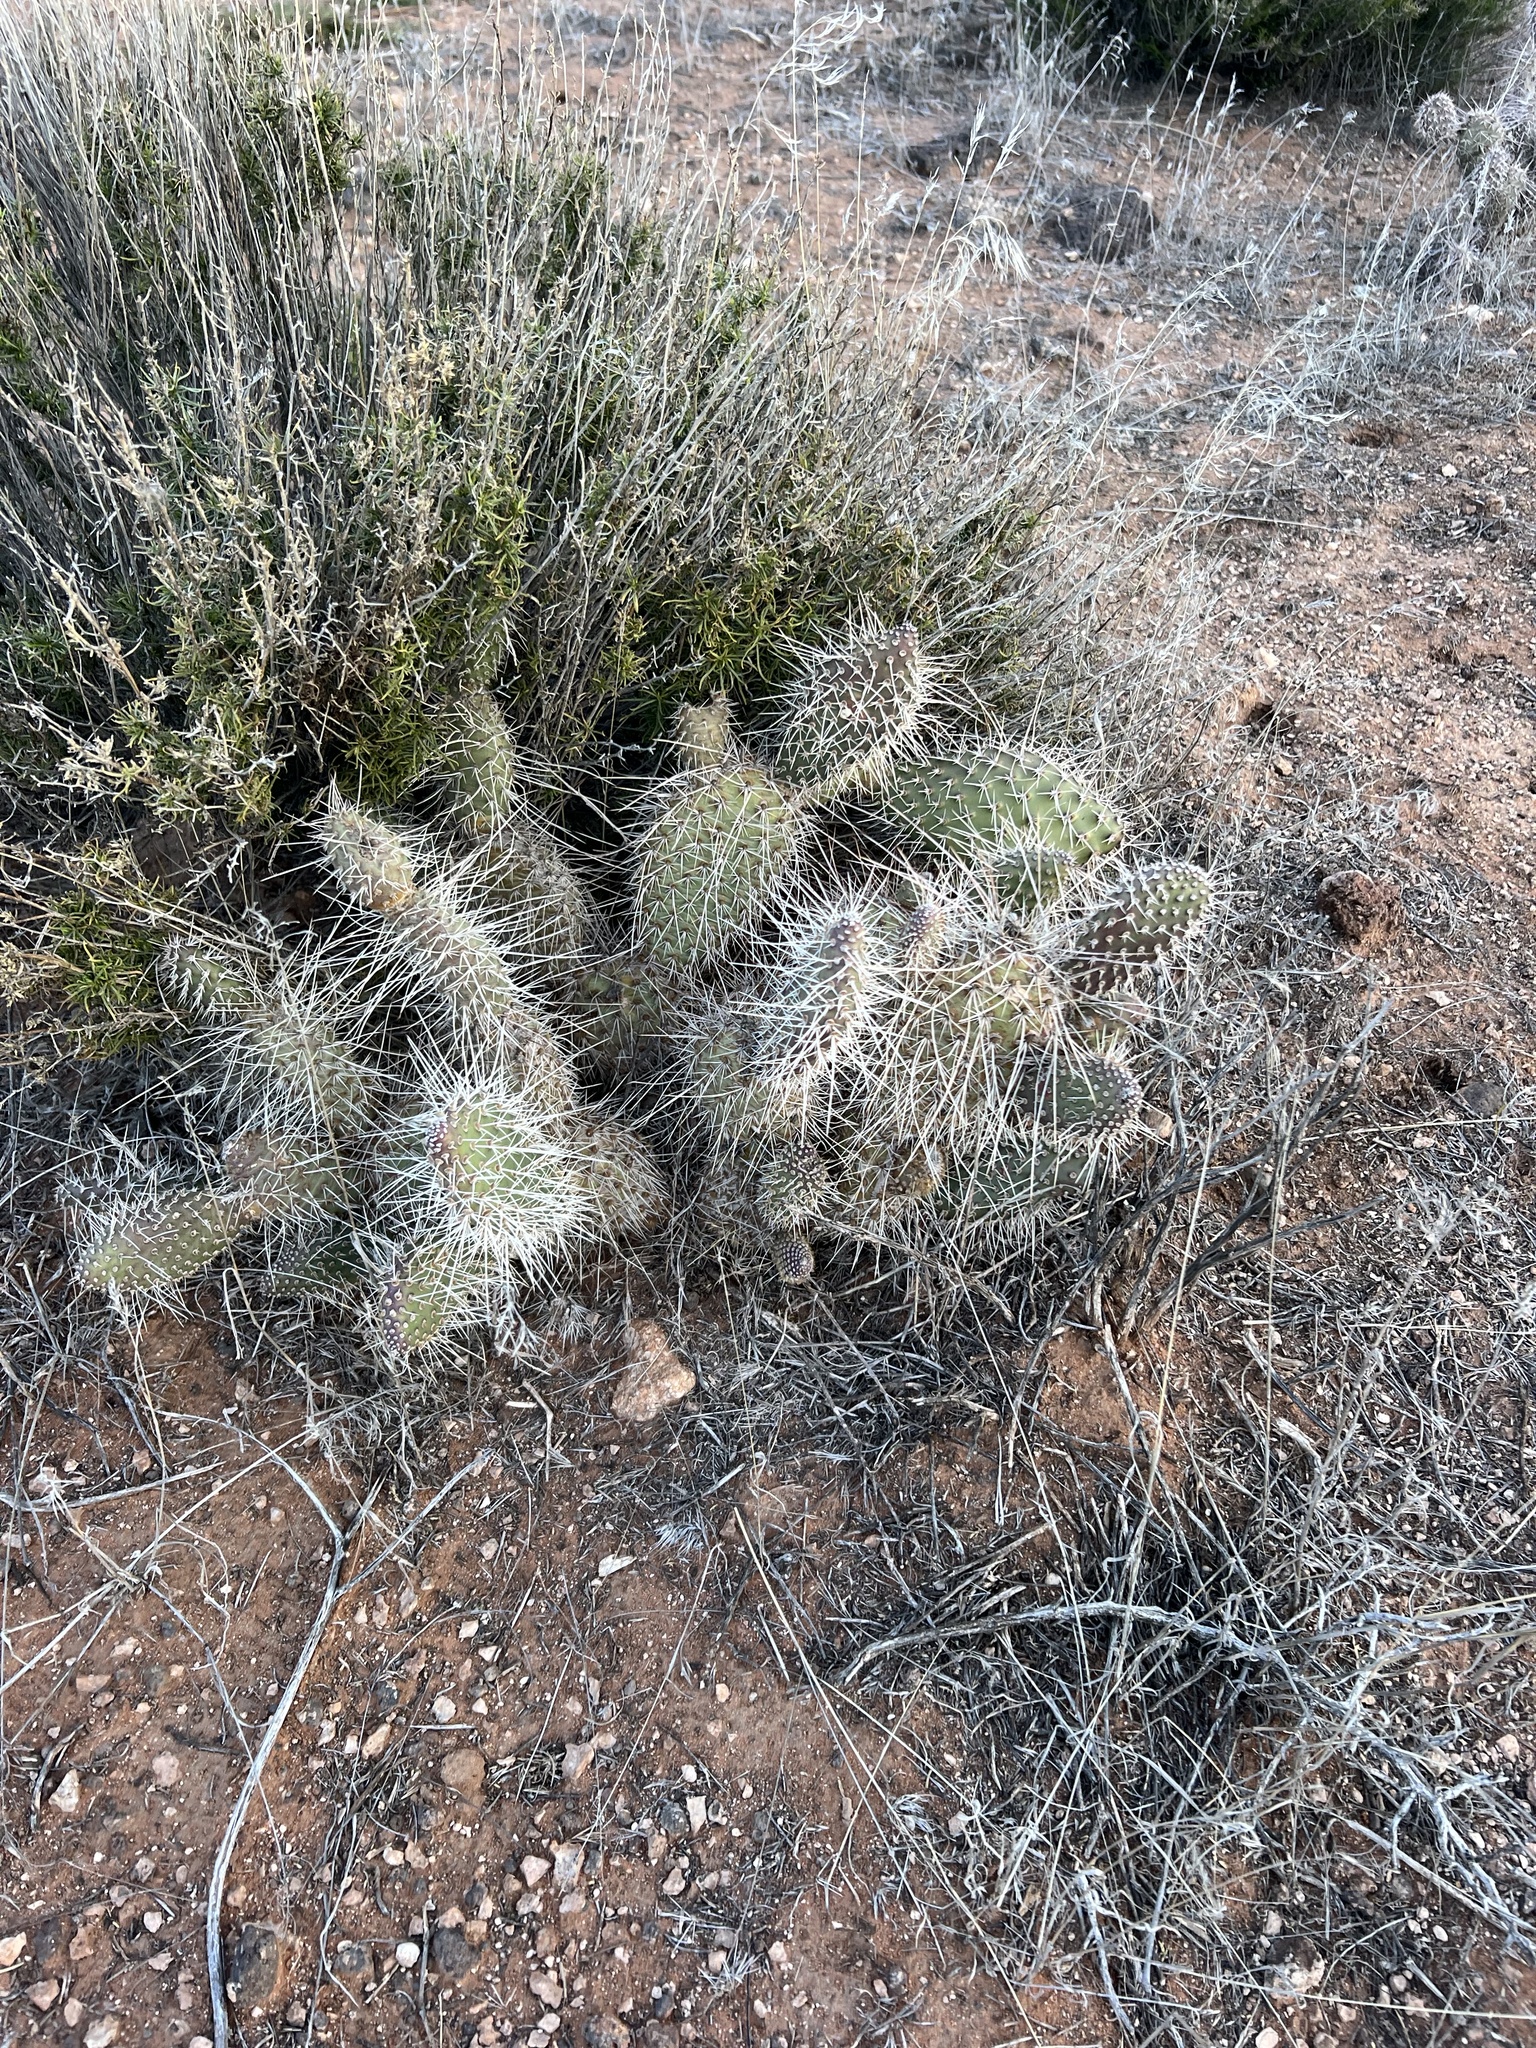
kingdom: Plantae
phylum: Tracheophyta
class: Magnoliopsida
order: Caryophyllales
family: Cactaceae
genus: Opuntia
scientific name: Opuntia polyacantha
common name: Plains prickly-pear
